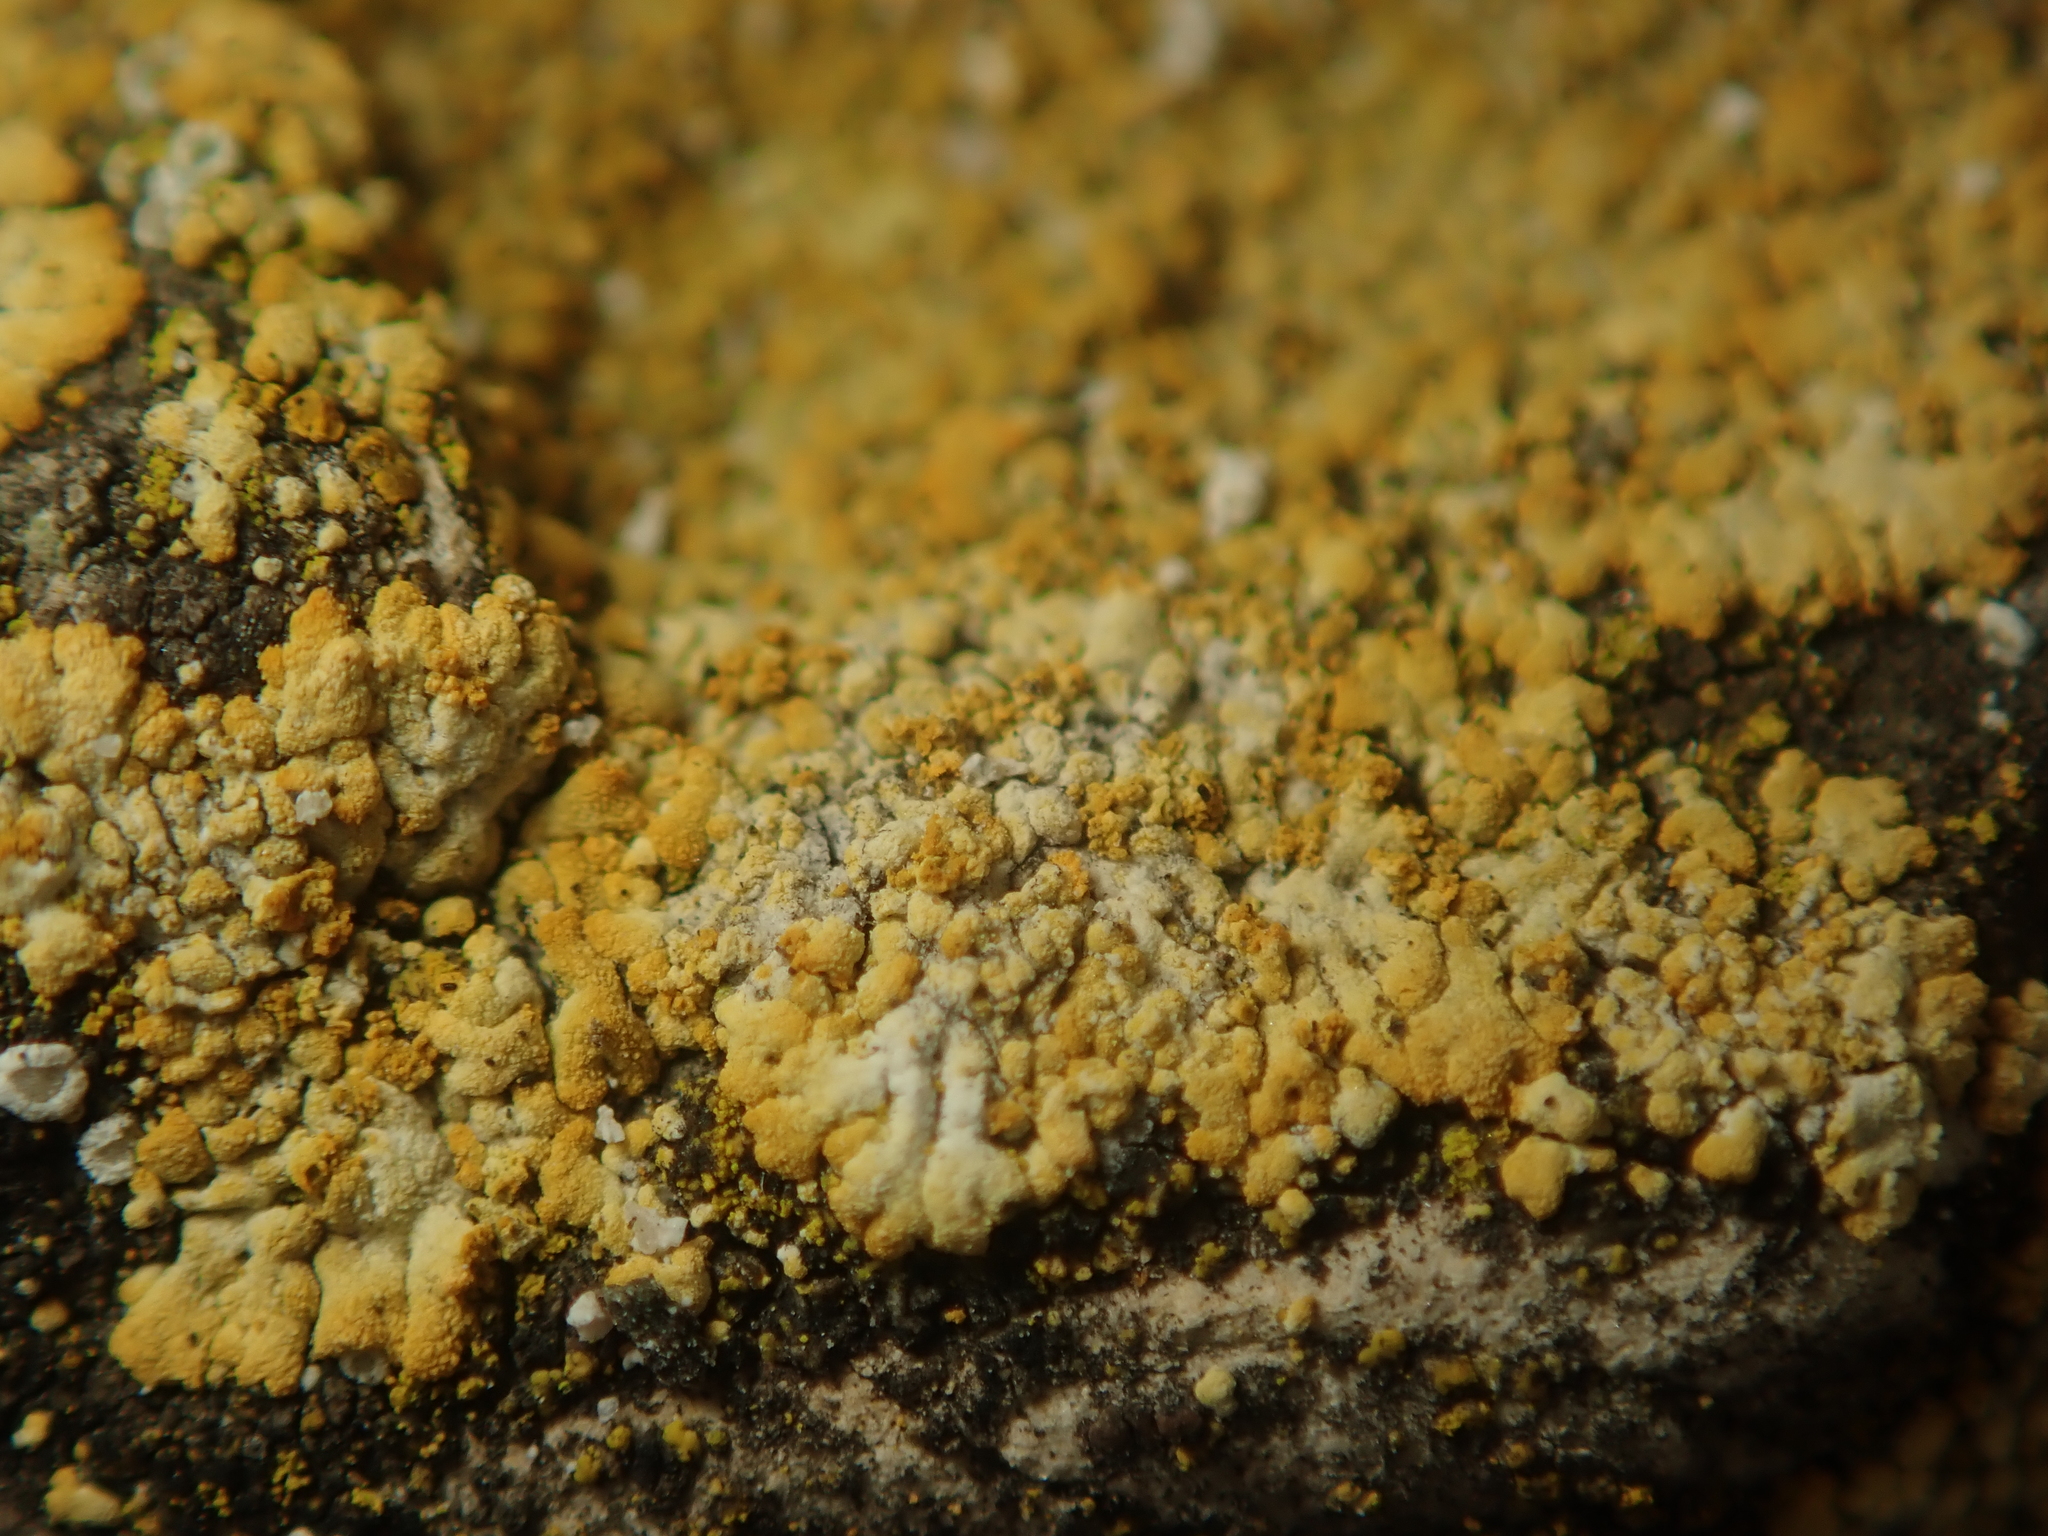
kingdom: Fungi
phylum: Ascomycota
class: Lecanoromycetes
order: Teloschistales
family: Teloschistaceae
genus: Calogaya
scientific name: Calogaya decipiens
